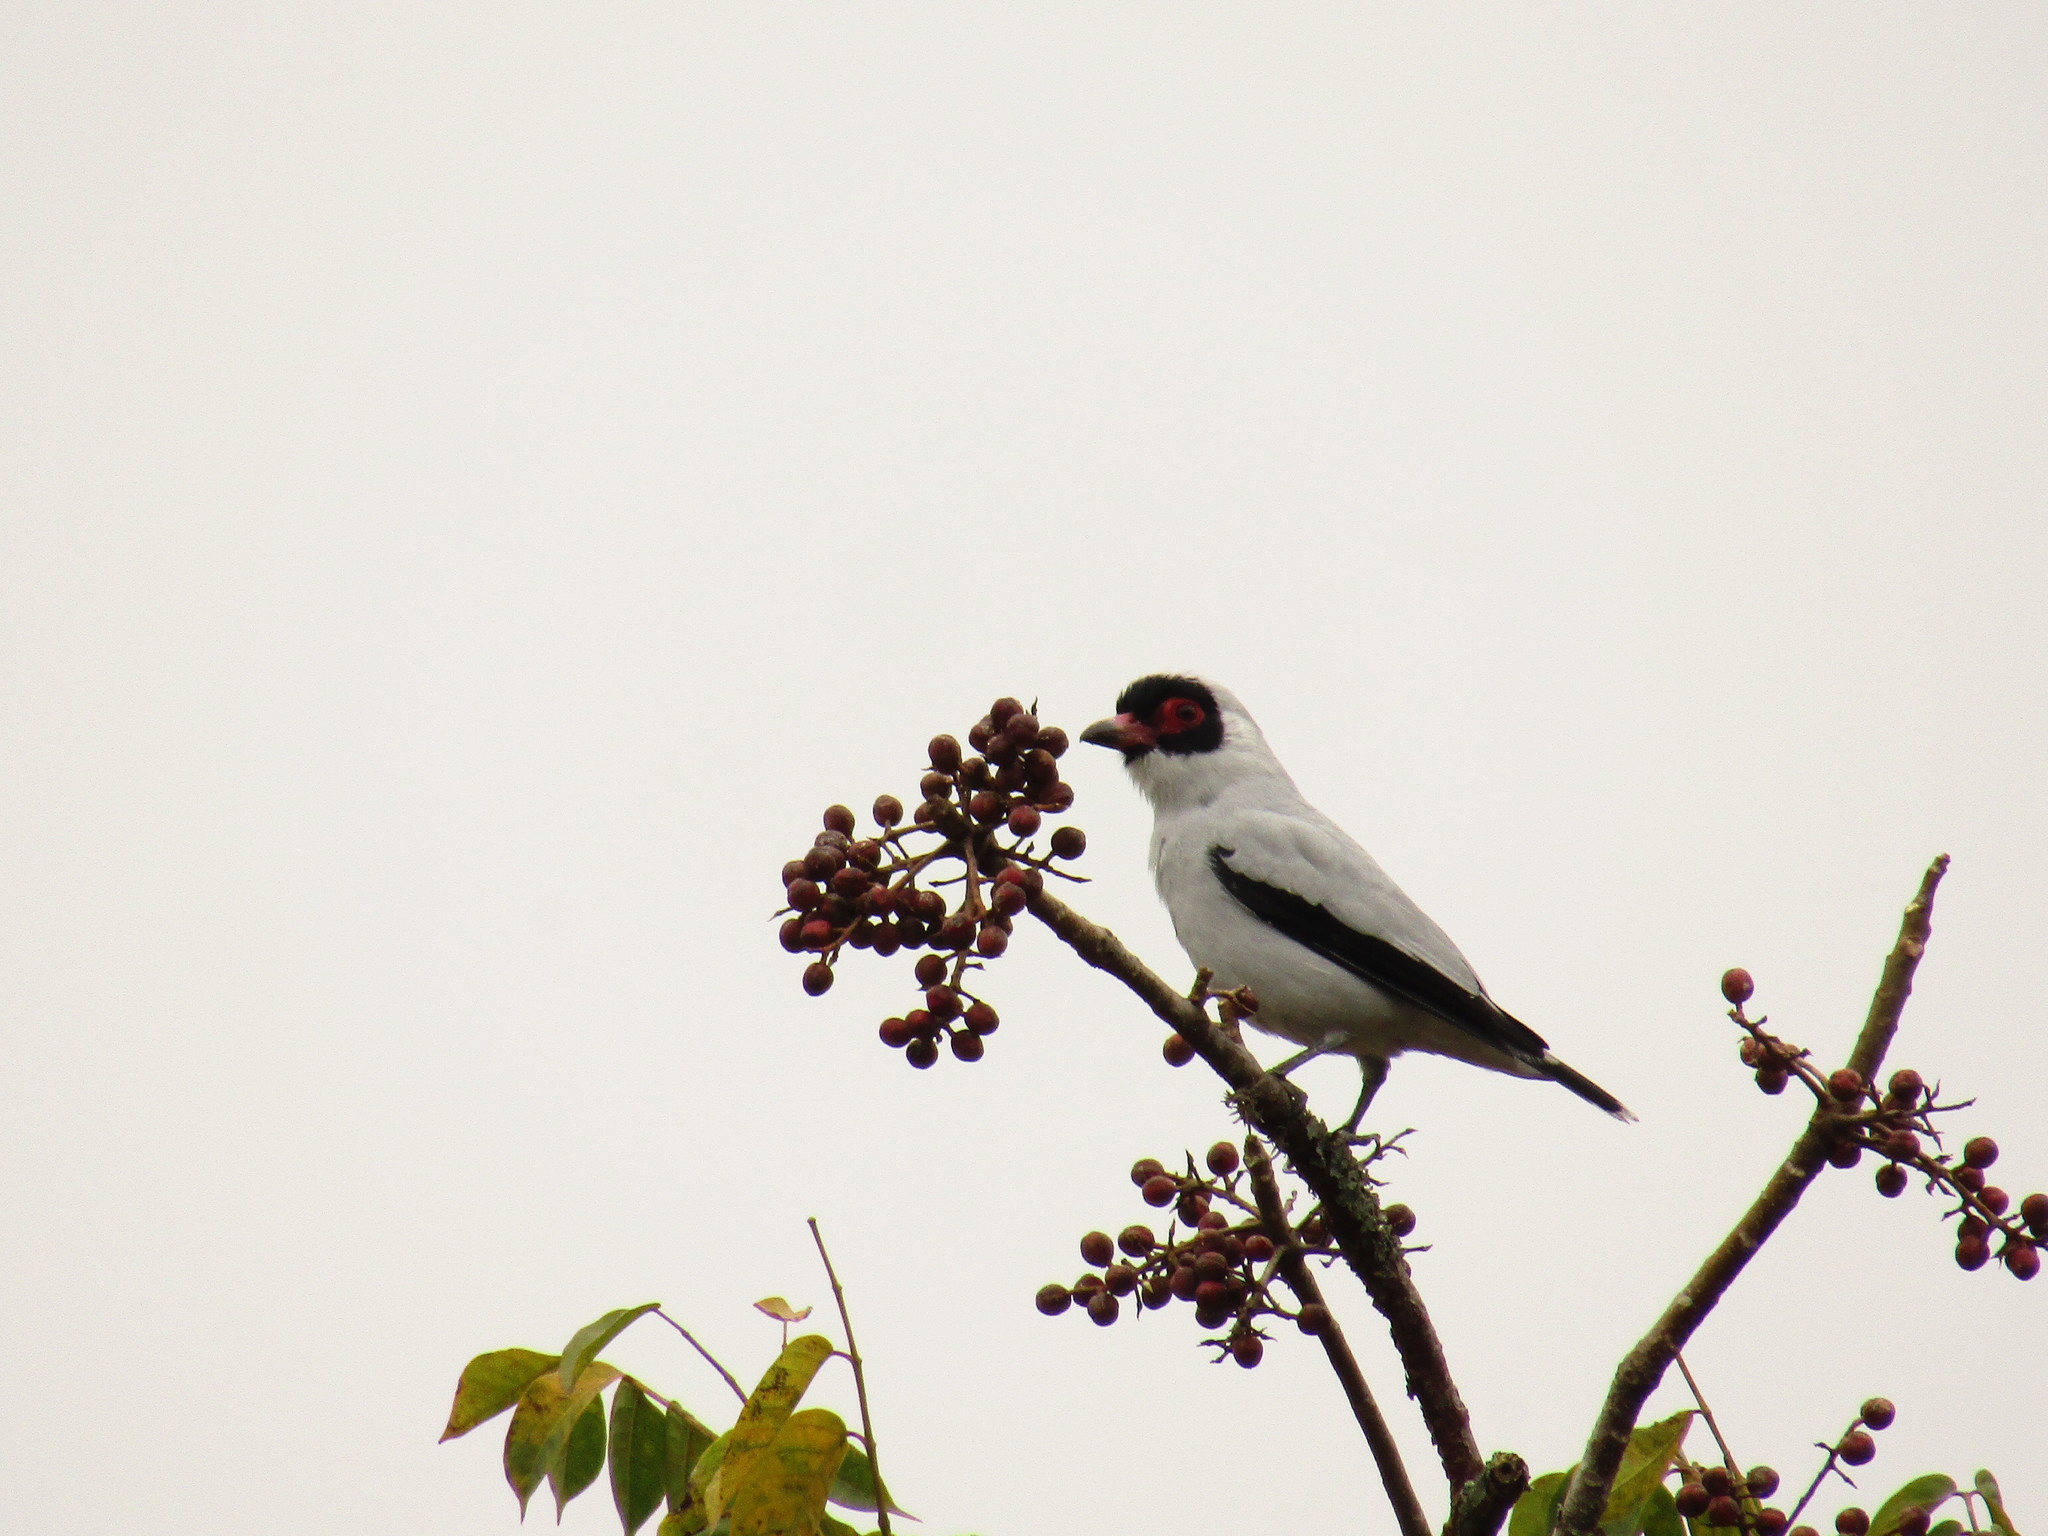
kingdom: Animalia
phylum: Chordata
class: Aves
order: Passeriformes
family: Cotingidae
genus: Tityra
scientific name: Tityra semifasciata
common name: Masked tityra
